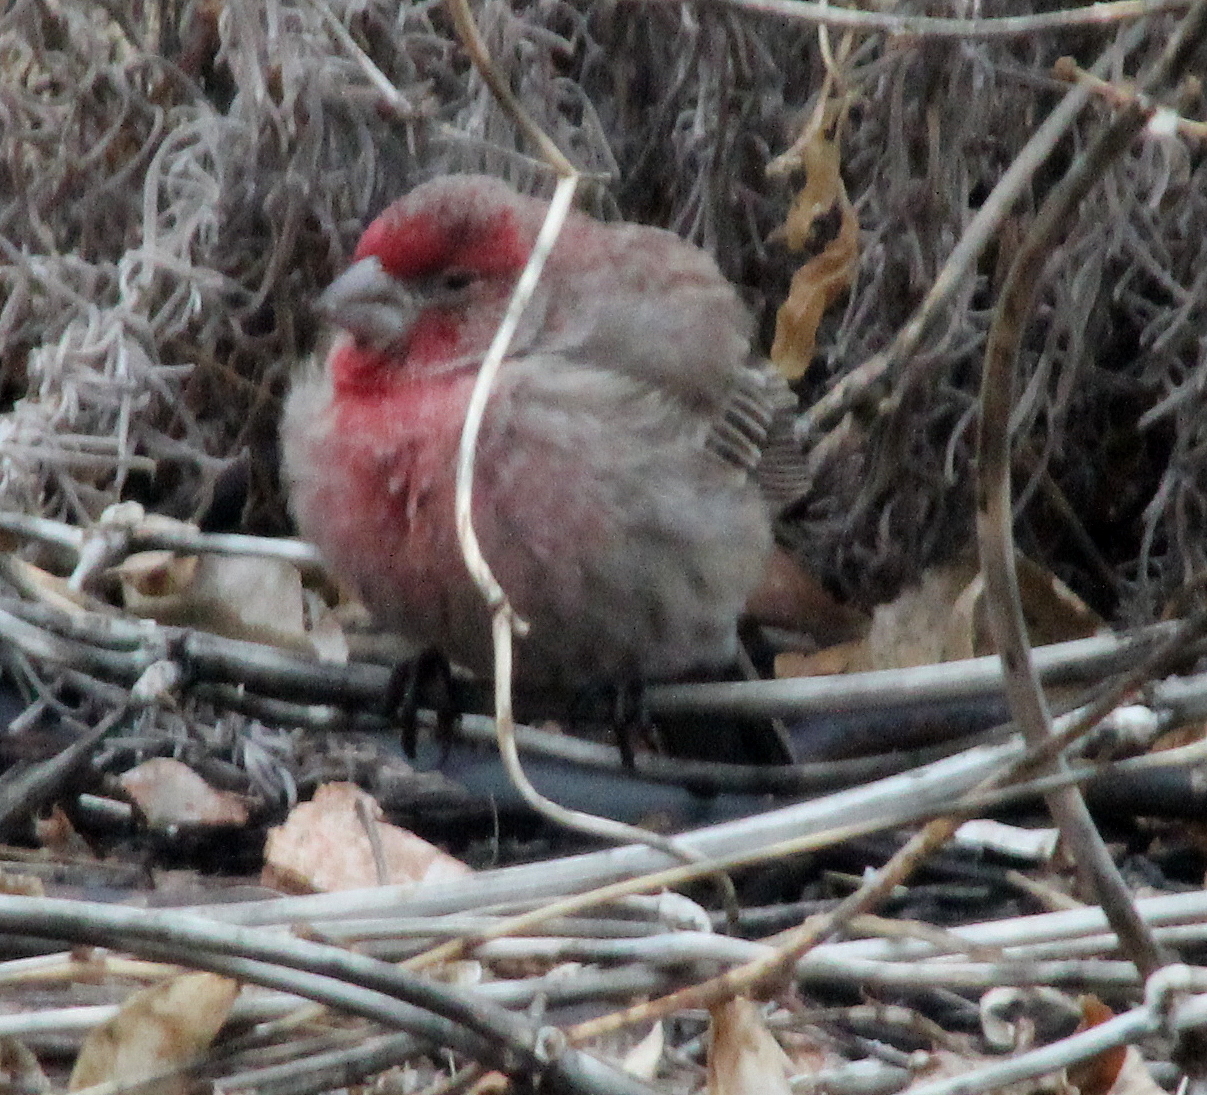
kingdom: Animalia
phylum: Chordata
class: Aves
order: Passeriformes
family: Fringillidae
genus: Haemorhous
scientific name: Haemorhous mexicanus
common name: House finch
